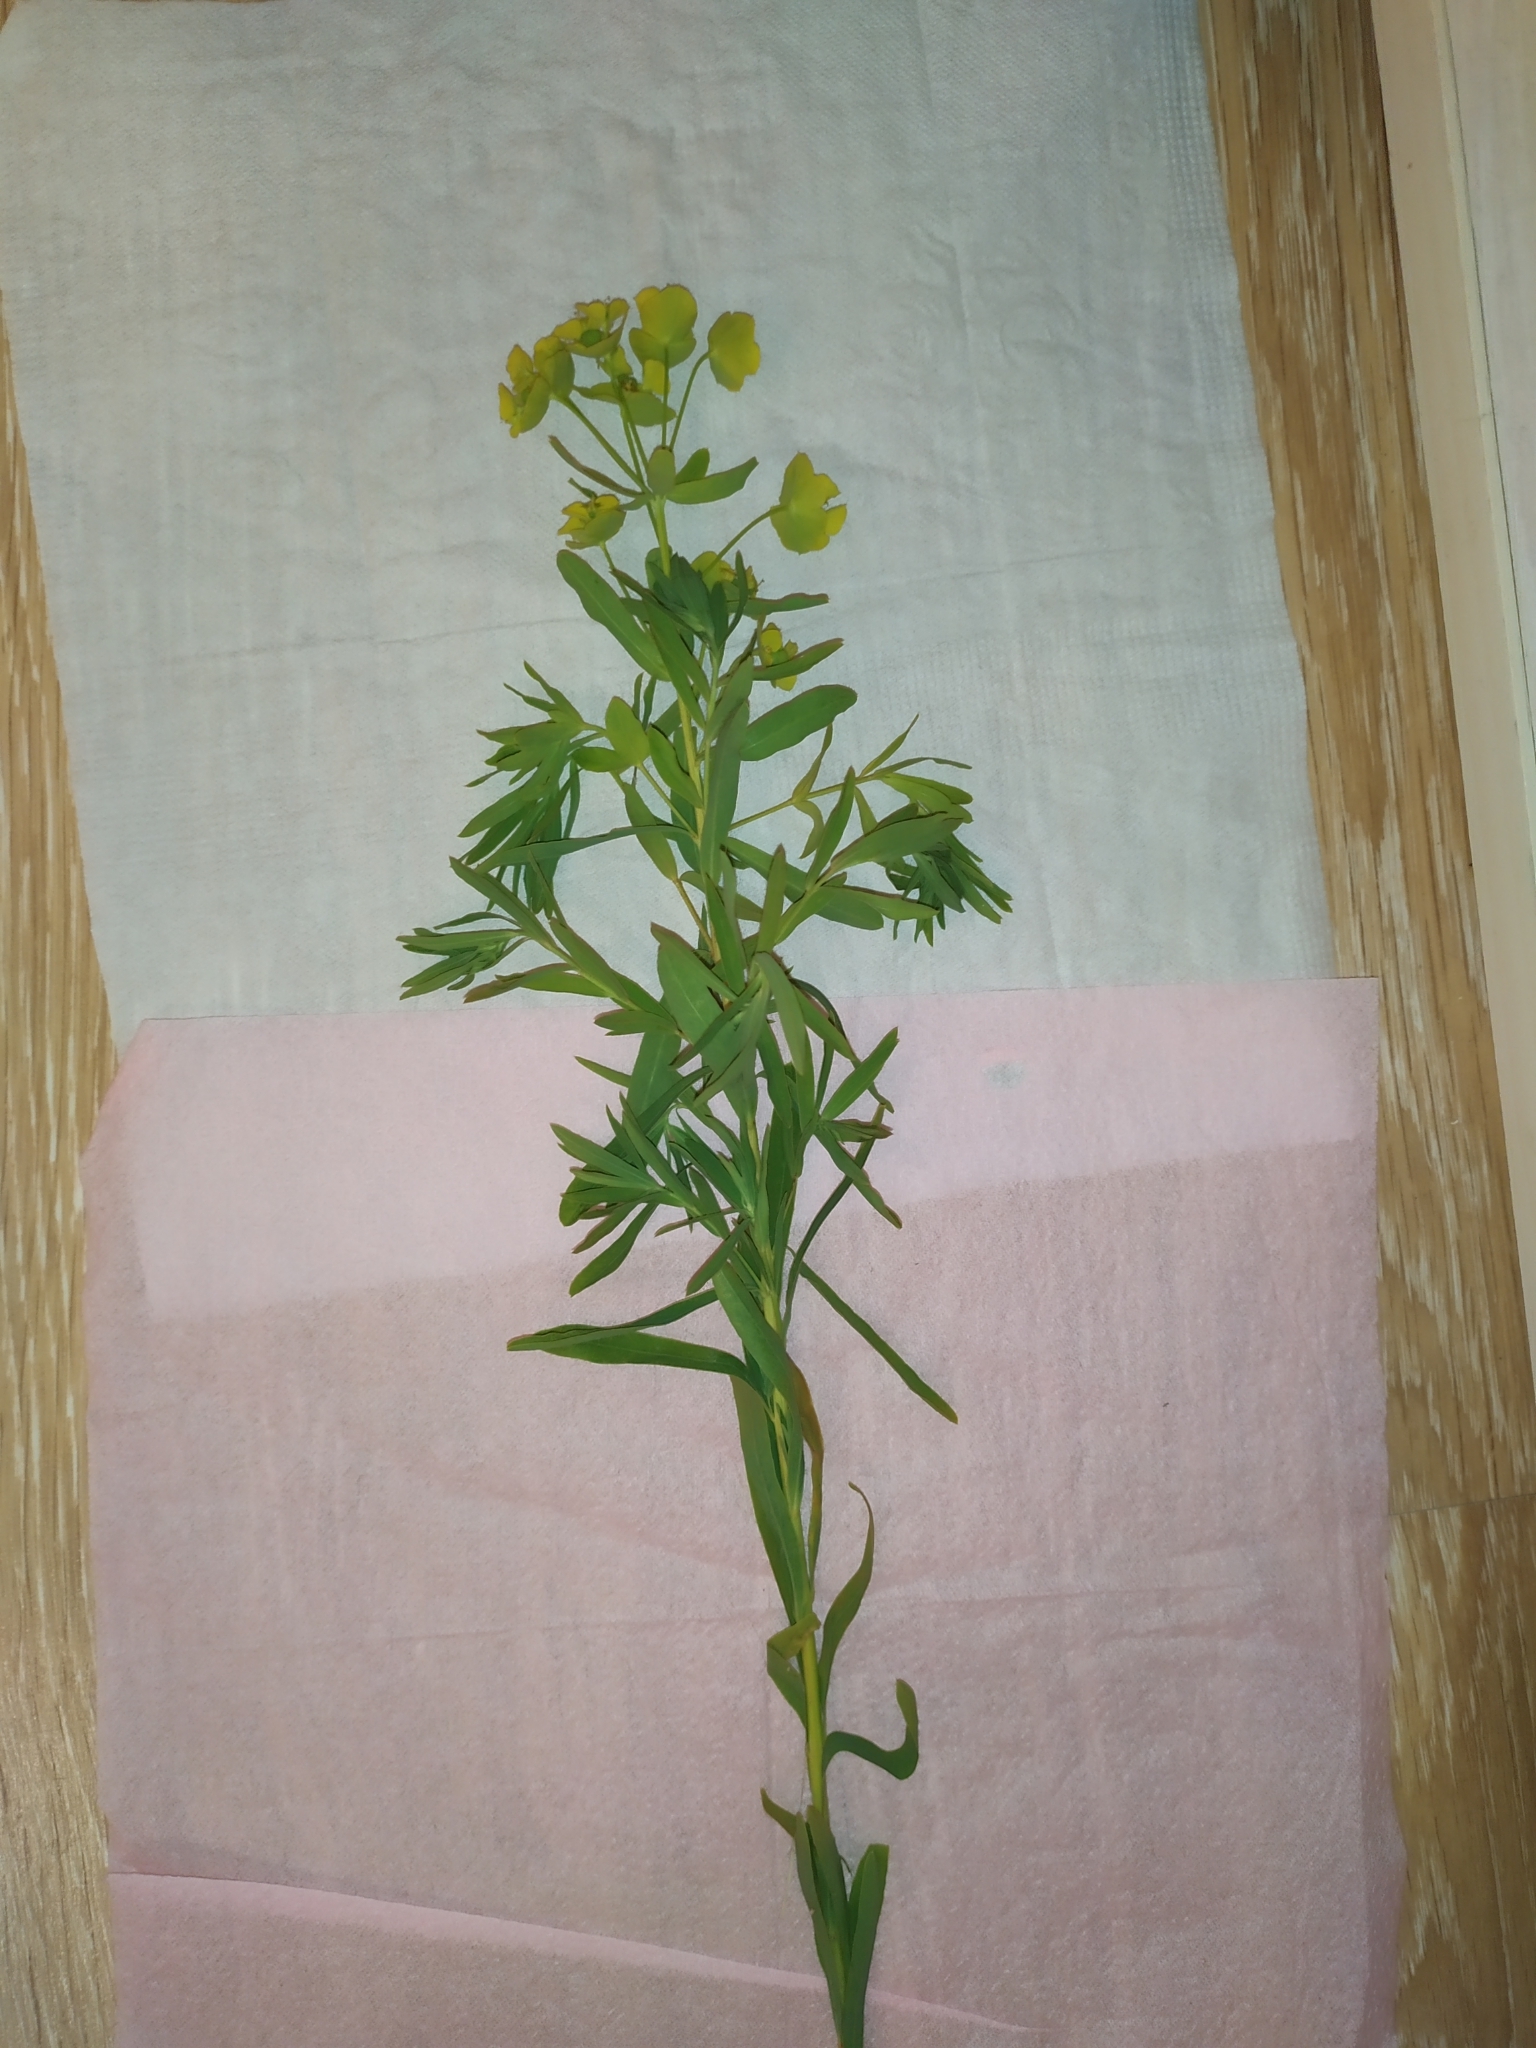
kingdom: Plantae
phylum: Tracheophyta
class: Magnoliopsida
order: Malpighiales
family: Euphorbiaceae
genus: Euphorbia
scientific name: Euphorbia virgata
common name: Leafy spurge
